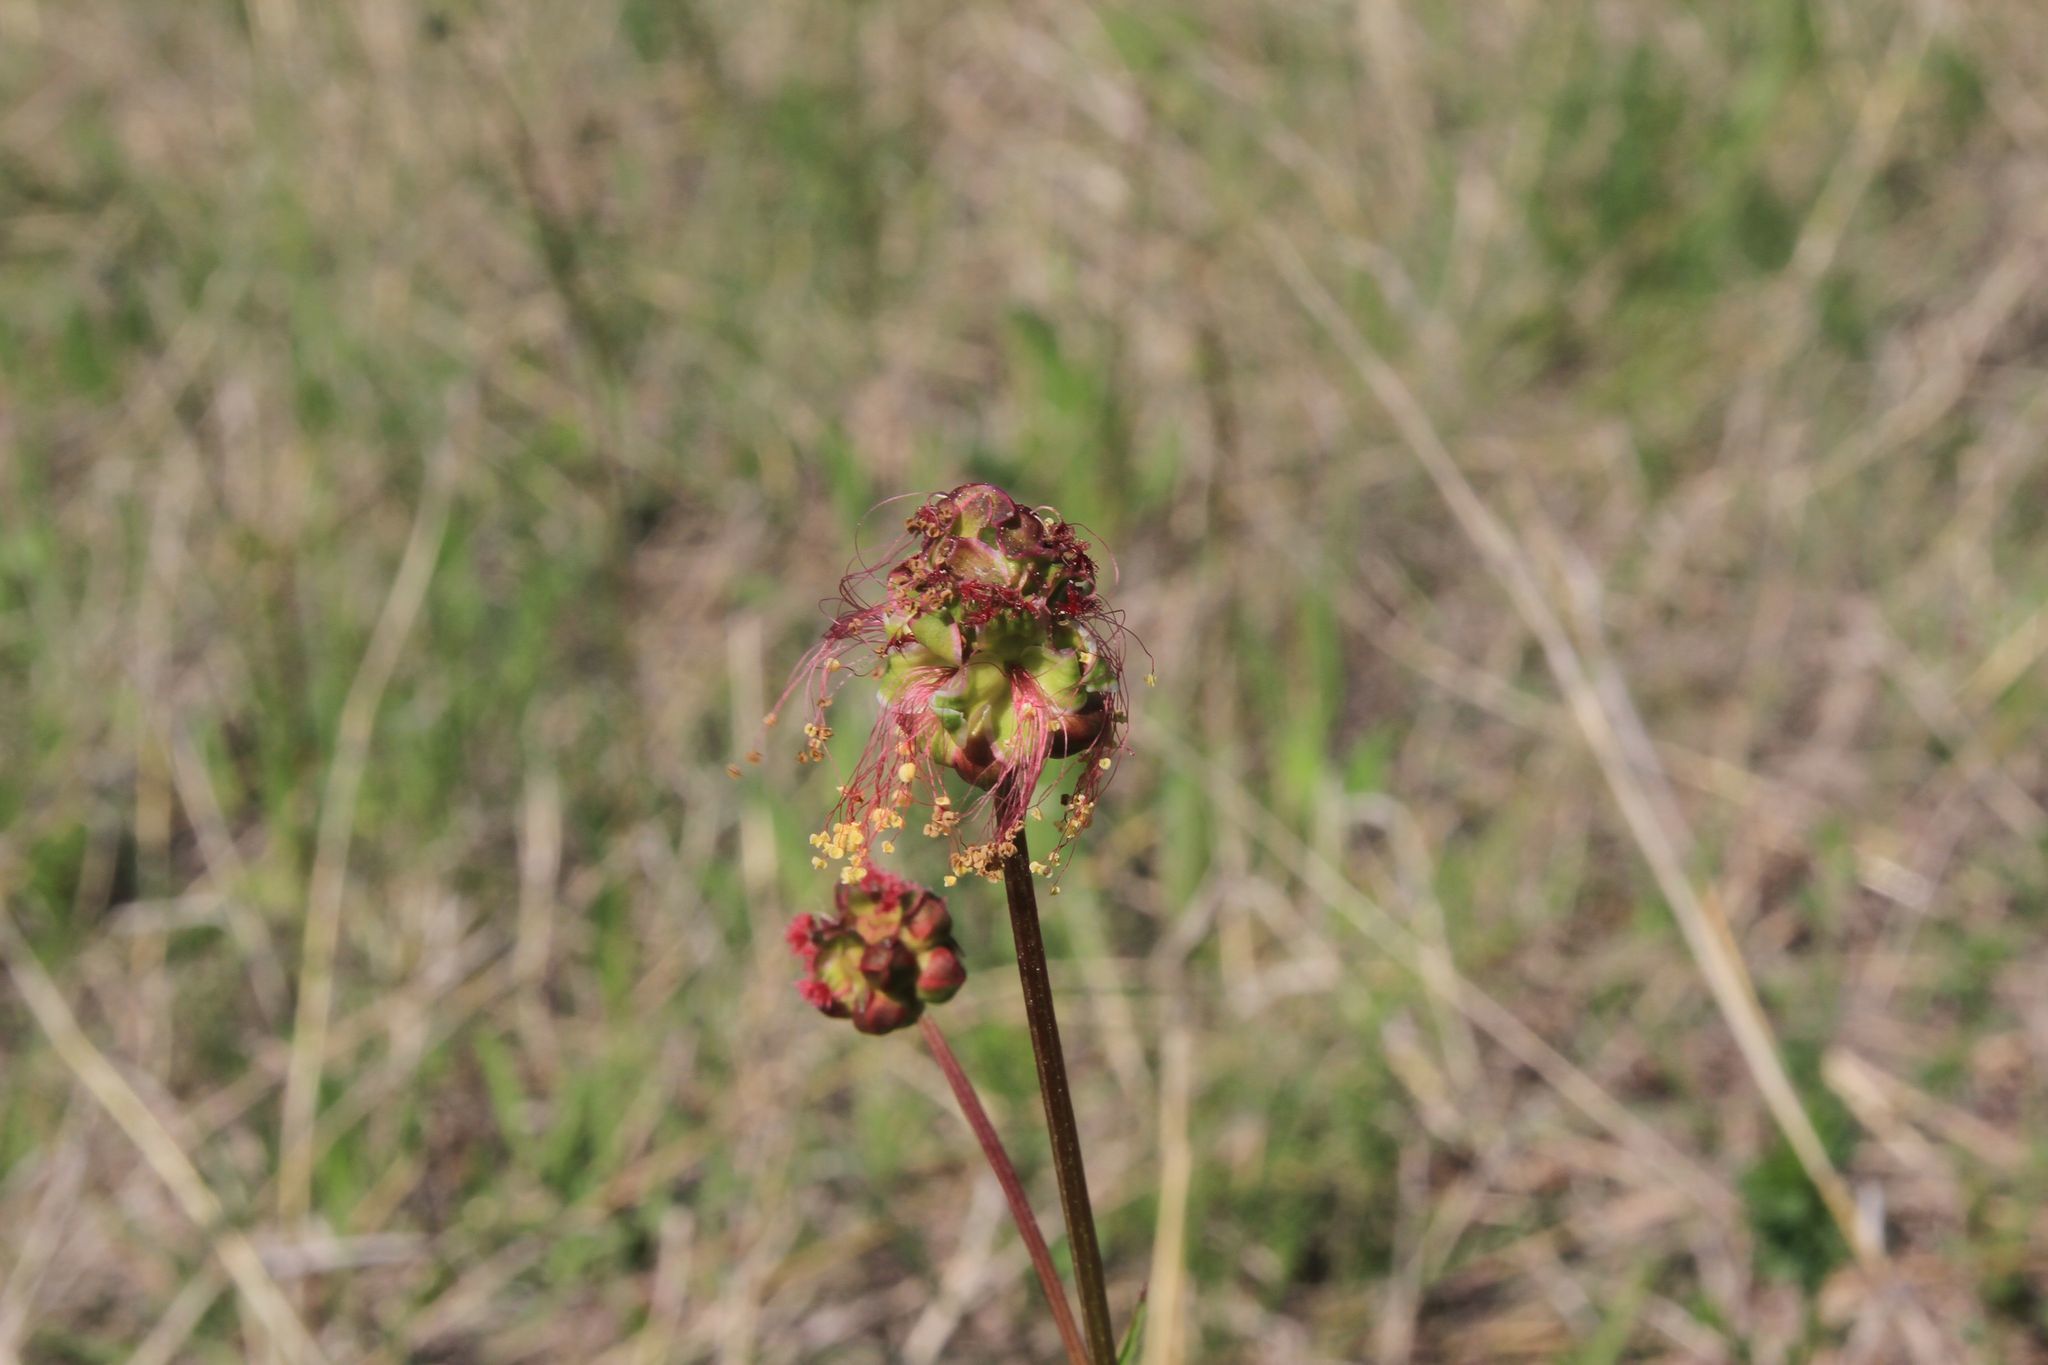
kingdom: Plantae
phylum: Tracheophyta
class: Magnoliopsida
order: Rosales
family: Rosaceae
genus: Poterium
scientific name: Poterium sanguisorba
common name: Salad burnet
